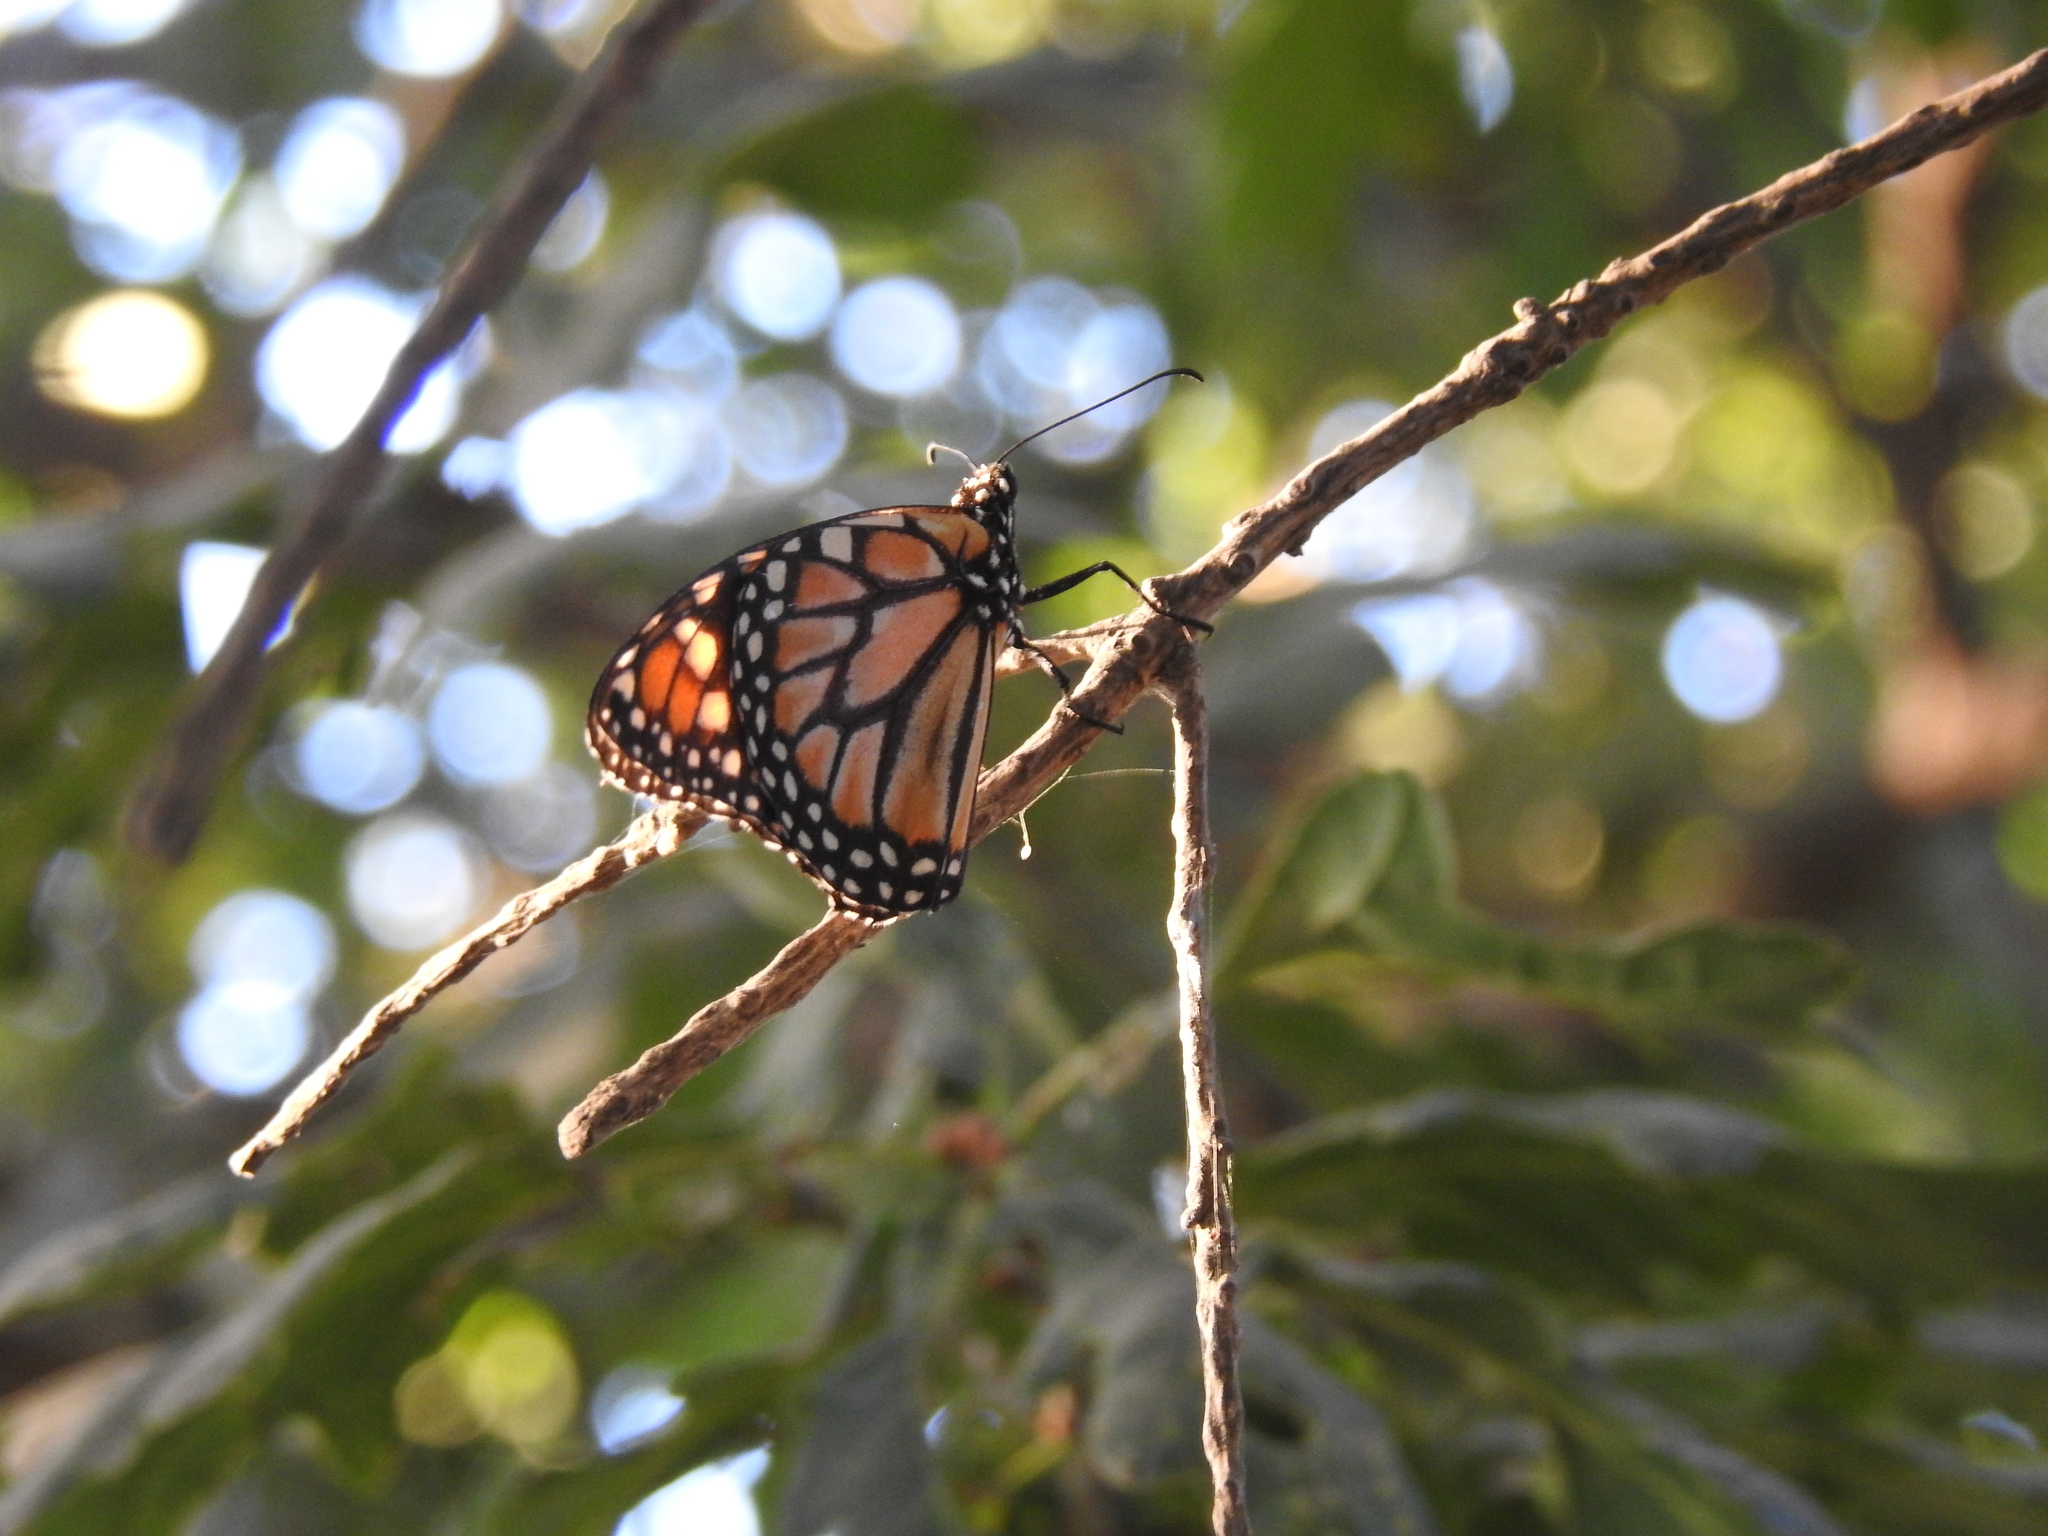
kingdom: Animalia
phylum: Arthropoda
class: Insecta
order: Lepidoptera
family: Nymphalidae
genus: Danaus
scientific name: Danaus erippus
